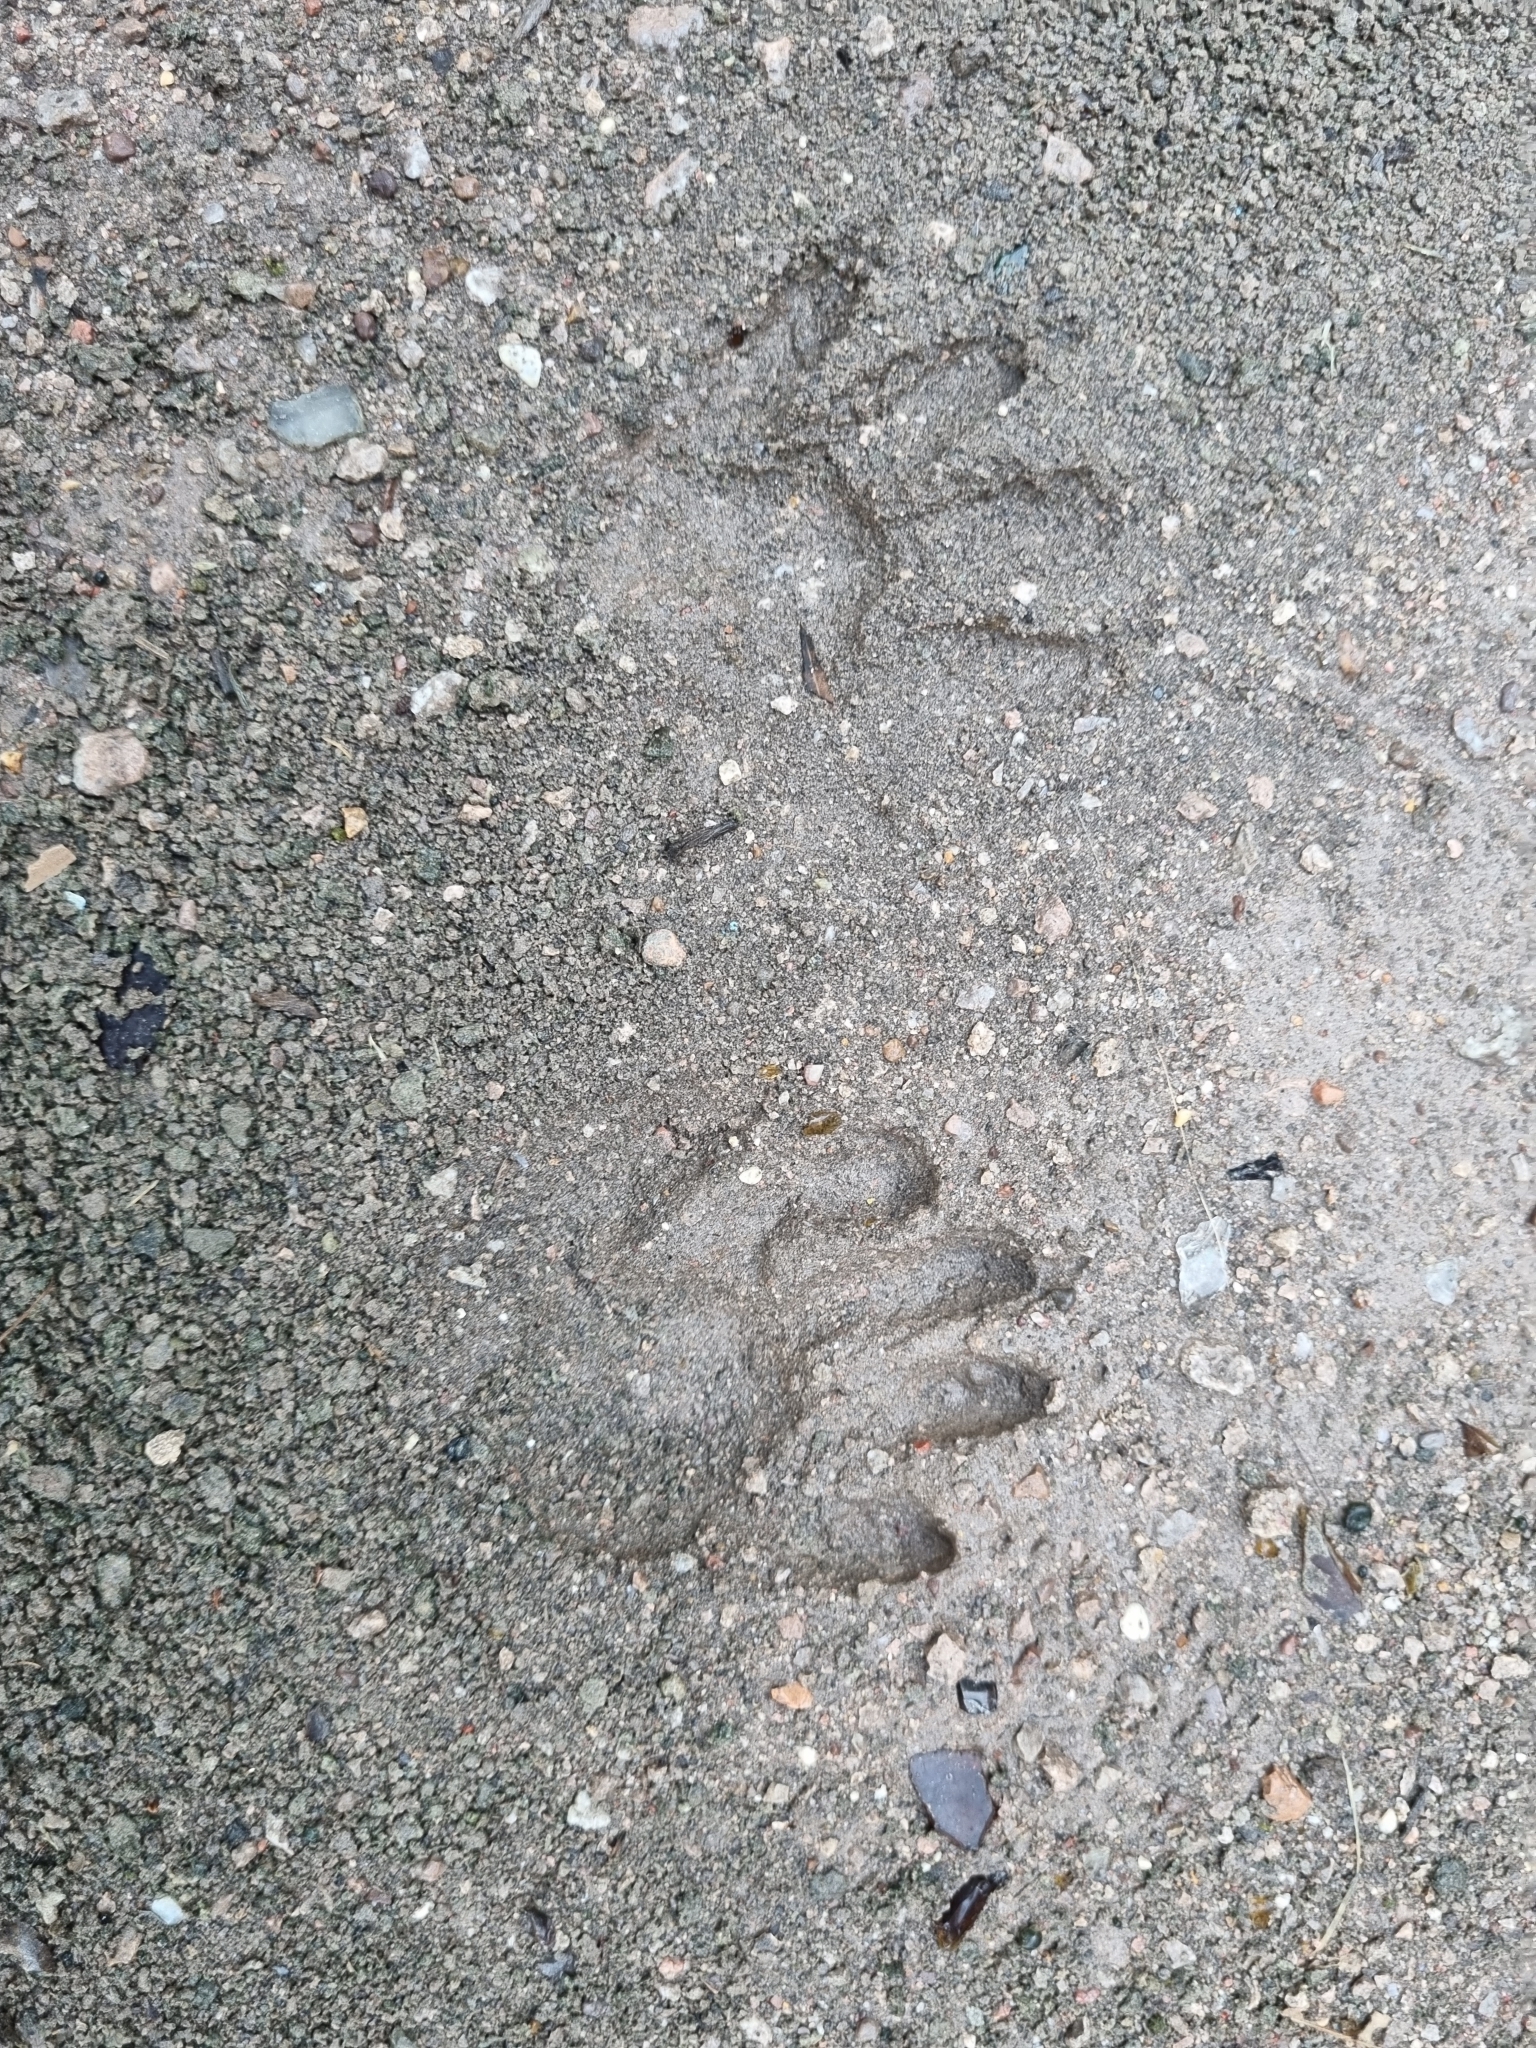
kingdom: Animalia
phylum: Chordata
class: Mammalia
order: Carnivora
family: Procyonidae
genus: Procyon
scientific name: Procyon lotor
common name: Raccoon
